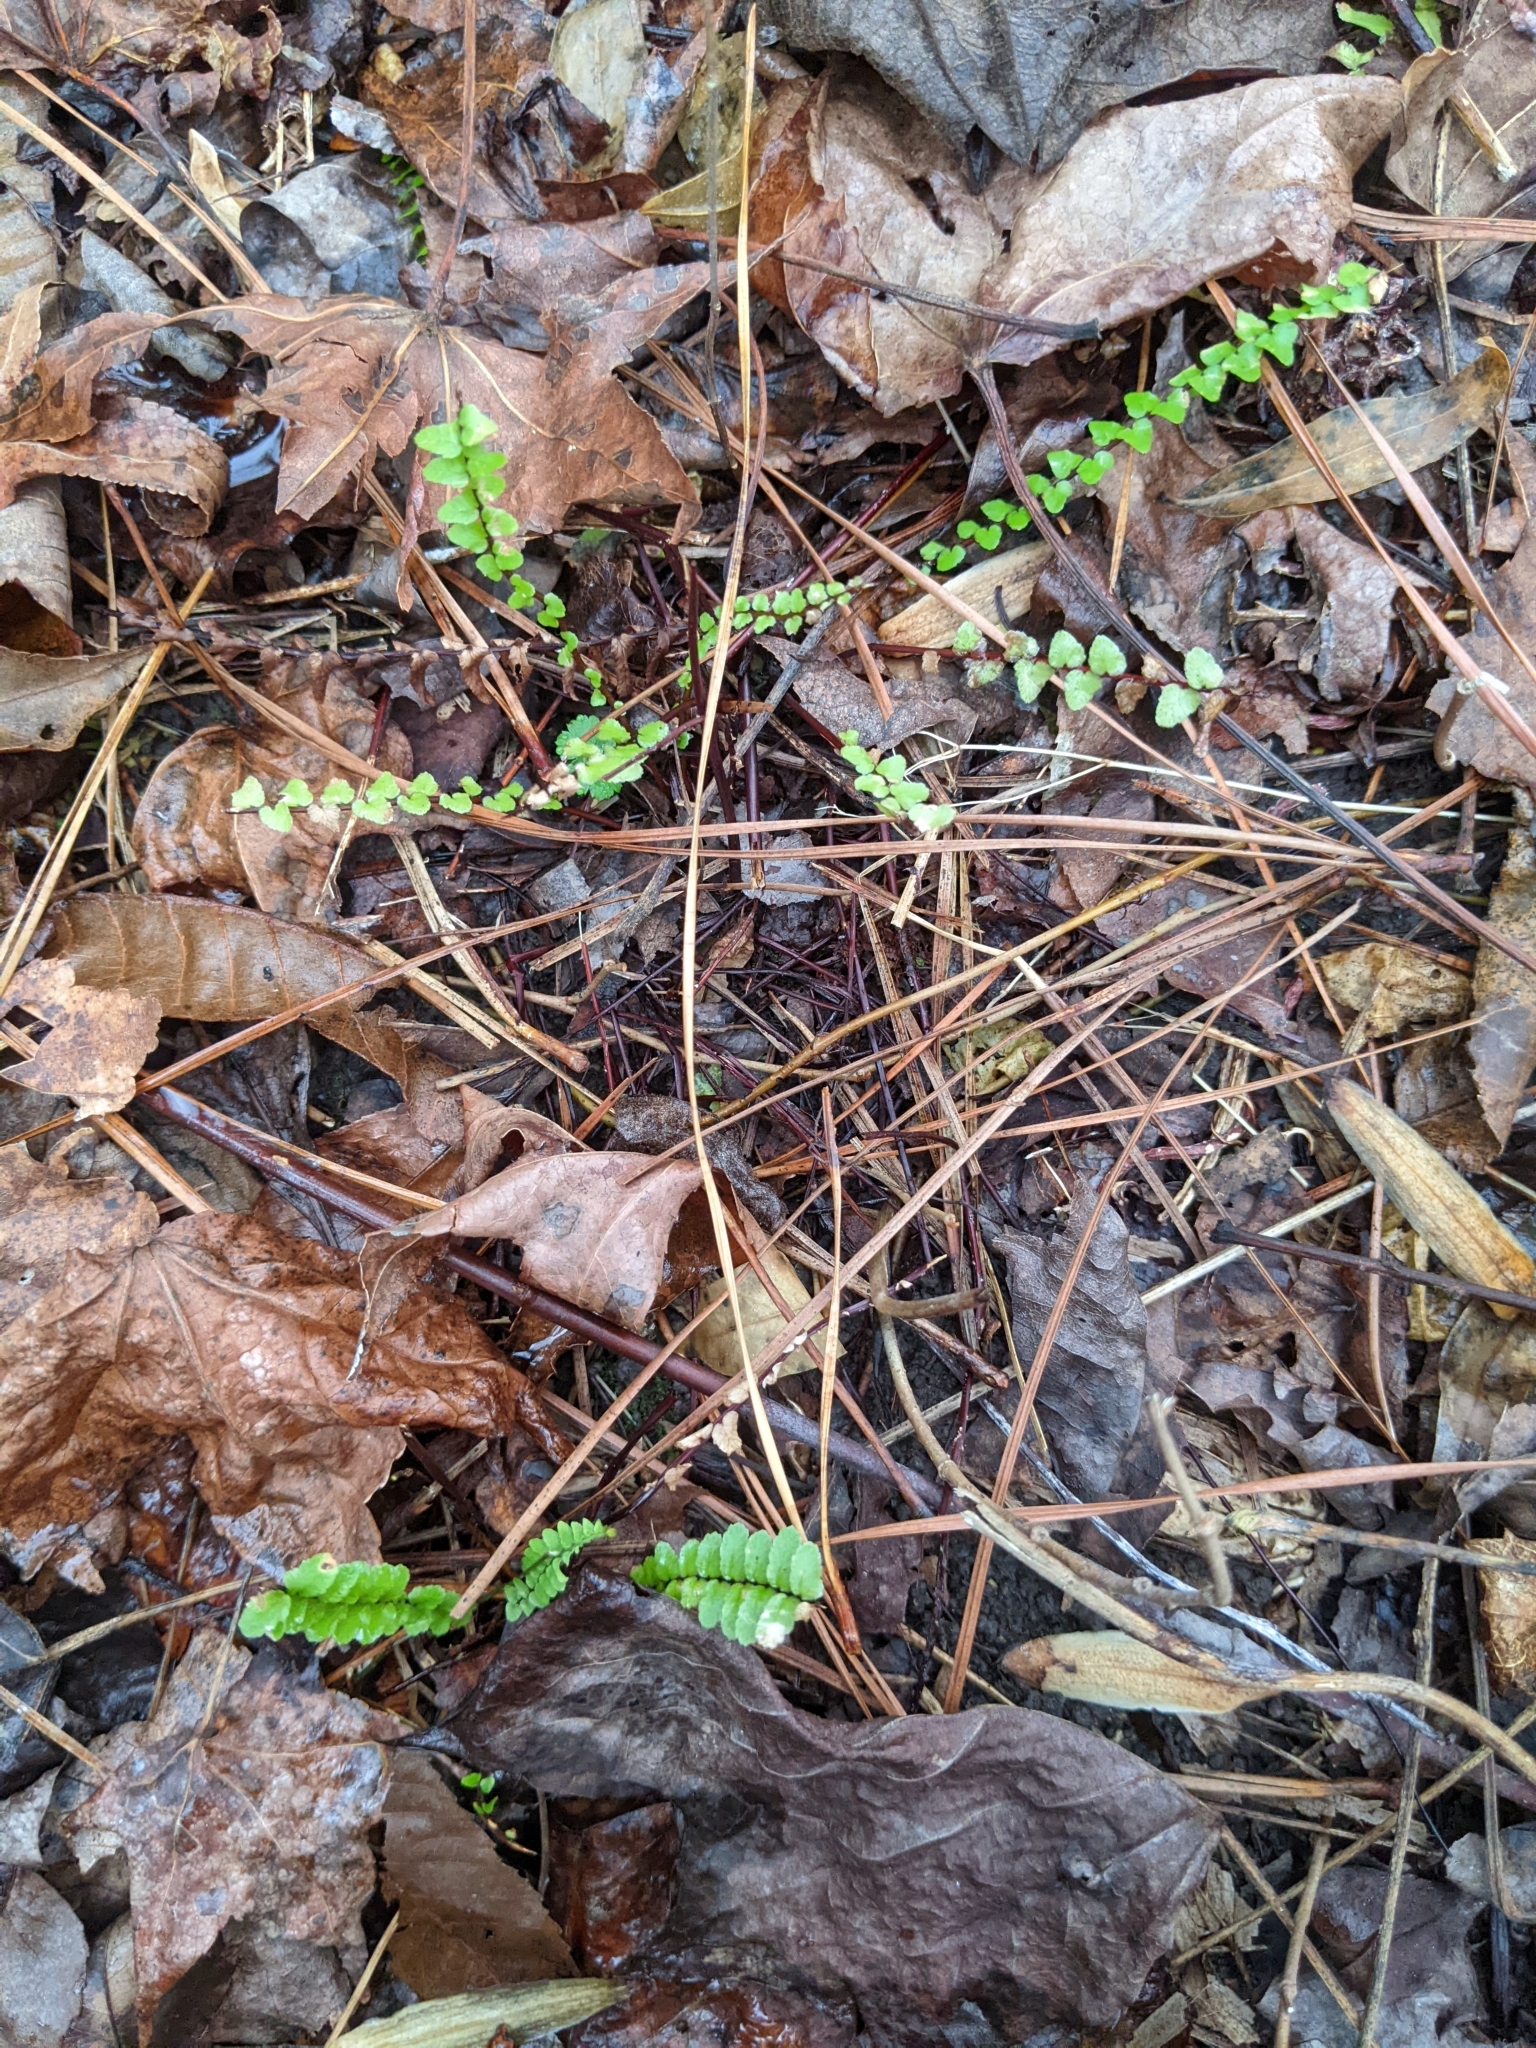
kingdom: Plantae
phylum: Tracheophyta
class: Polypodiopsida
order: Polypodiales
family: Aspleniaceae
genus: Asplenium
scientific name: Asplenium platyneuron
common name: Ebony spleenwort
